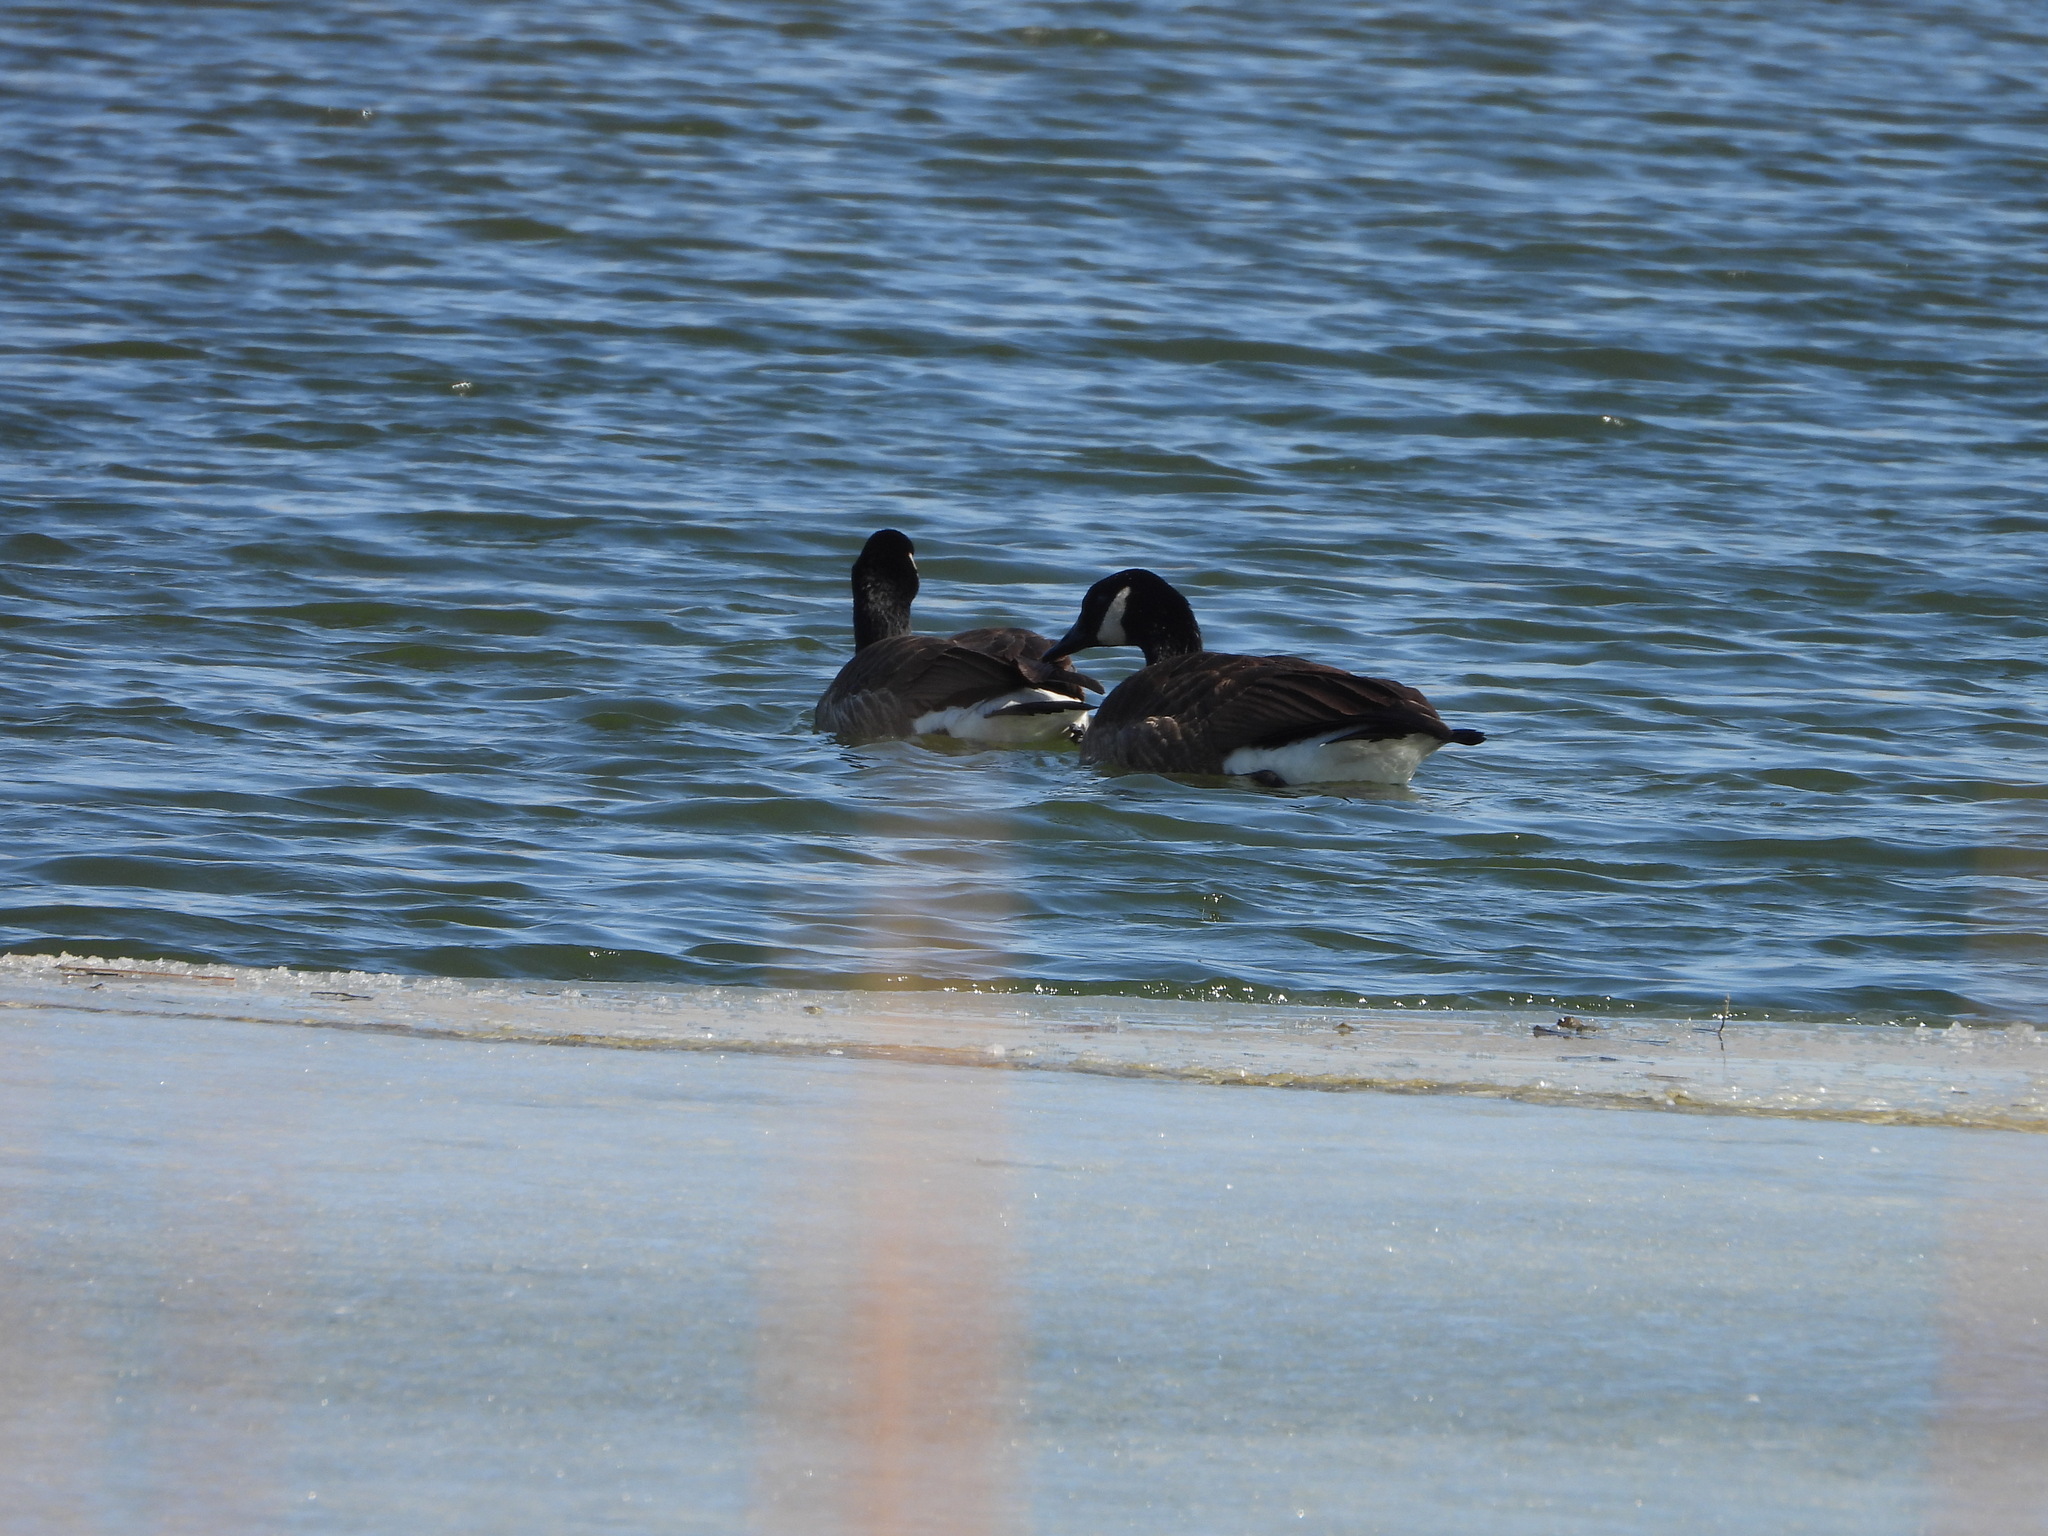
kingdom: Animalia
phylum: Chordata
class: Aves
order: Anseriformes
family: Anatidae
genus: Branta
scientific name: Branta canadensis
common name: Canada goose
